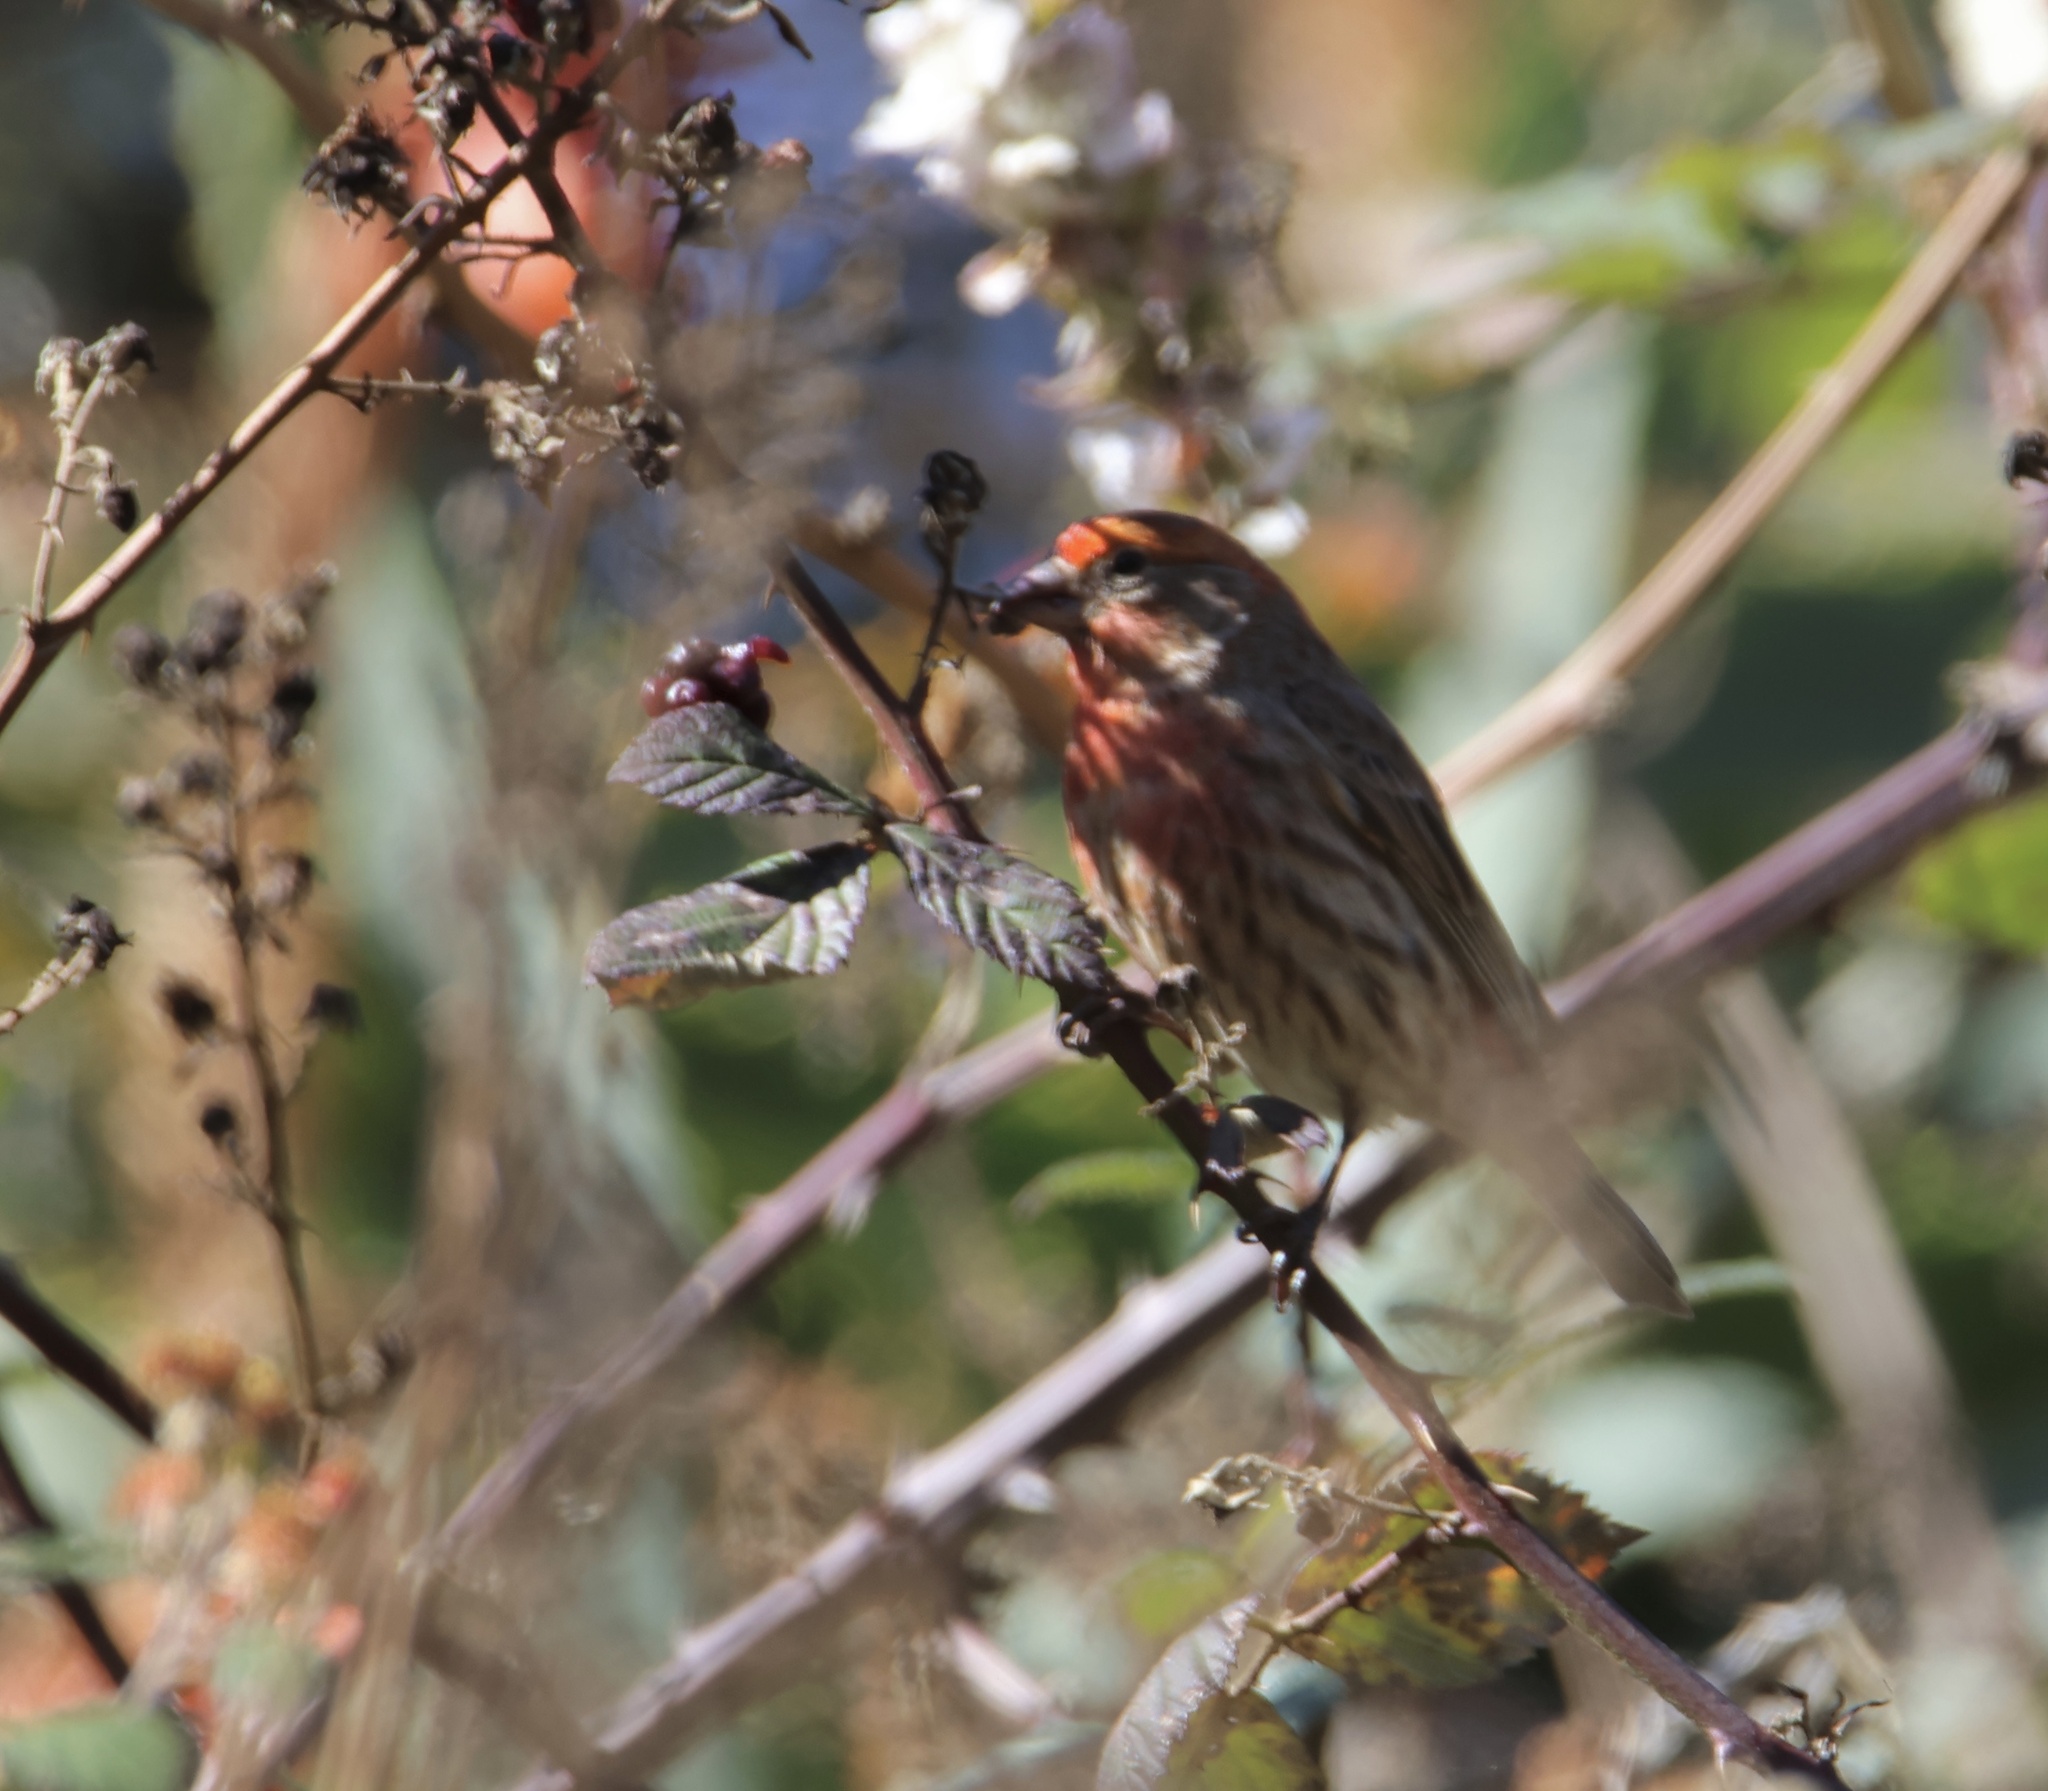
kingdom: Animalia
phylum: Chordata
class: Aves
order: Passeriformes
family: Fringillidae
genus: Haemorhous
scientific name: Haemorhous mexicanus
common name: House finch
